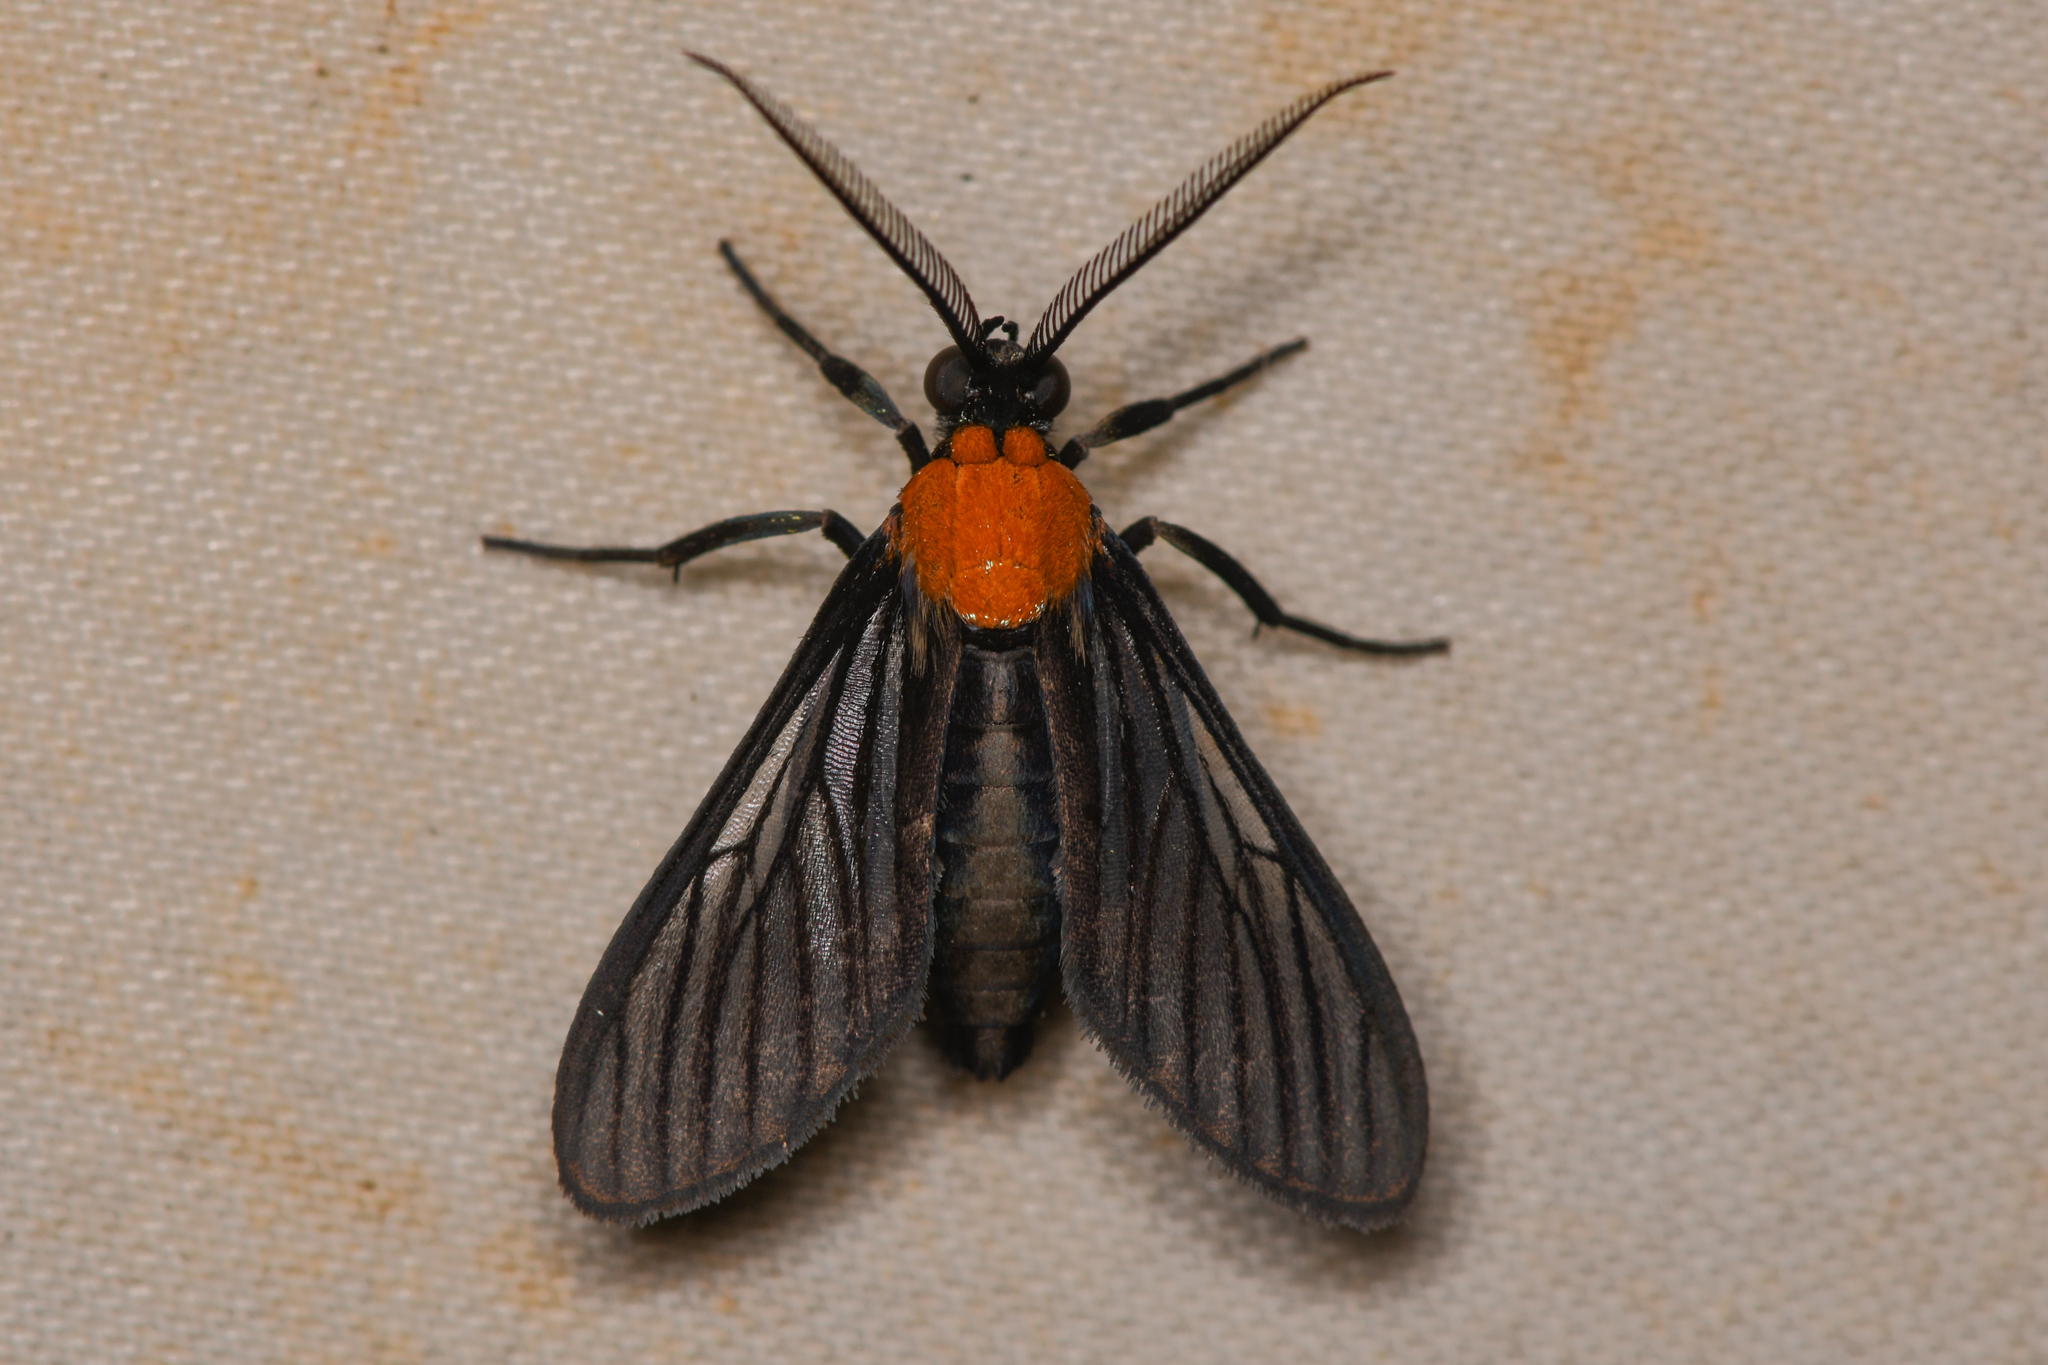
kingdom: Animalia
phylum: Arthropoda
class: Insecta
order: Lepidoptera
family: Erebidae
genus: Saurita
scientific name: Saurita temenus
